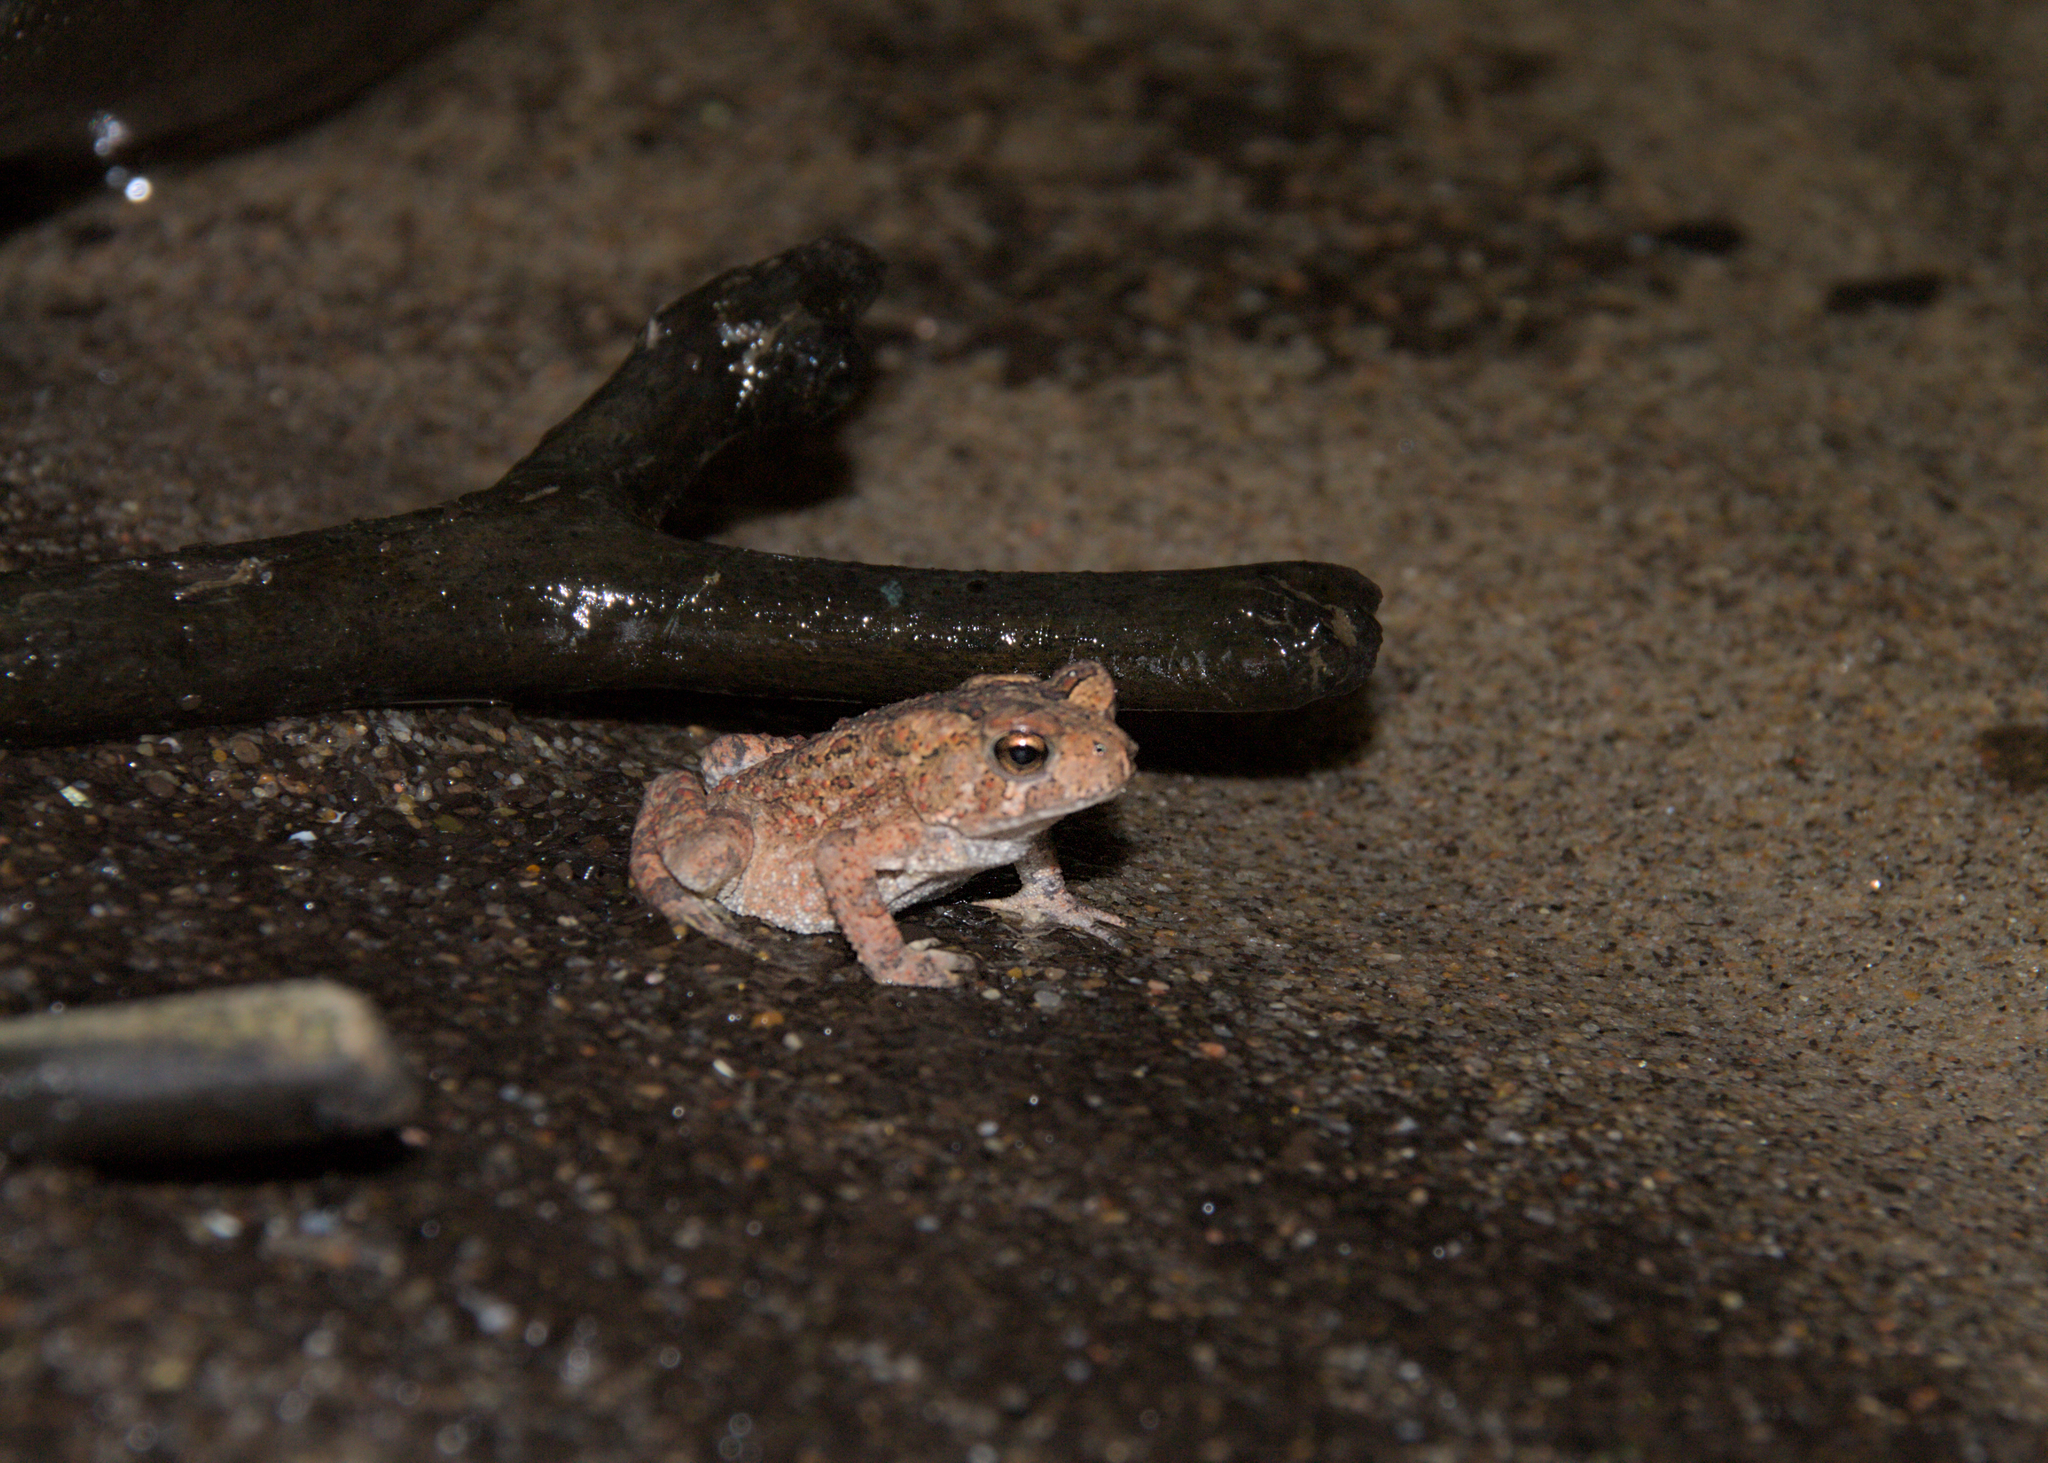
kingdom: Animalia
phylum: Chordata
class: Amphibia
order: Anura
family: Bufonidae
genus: Anaxyrus
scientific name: Anaxyrus americanus
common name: American toad
